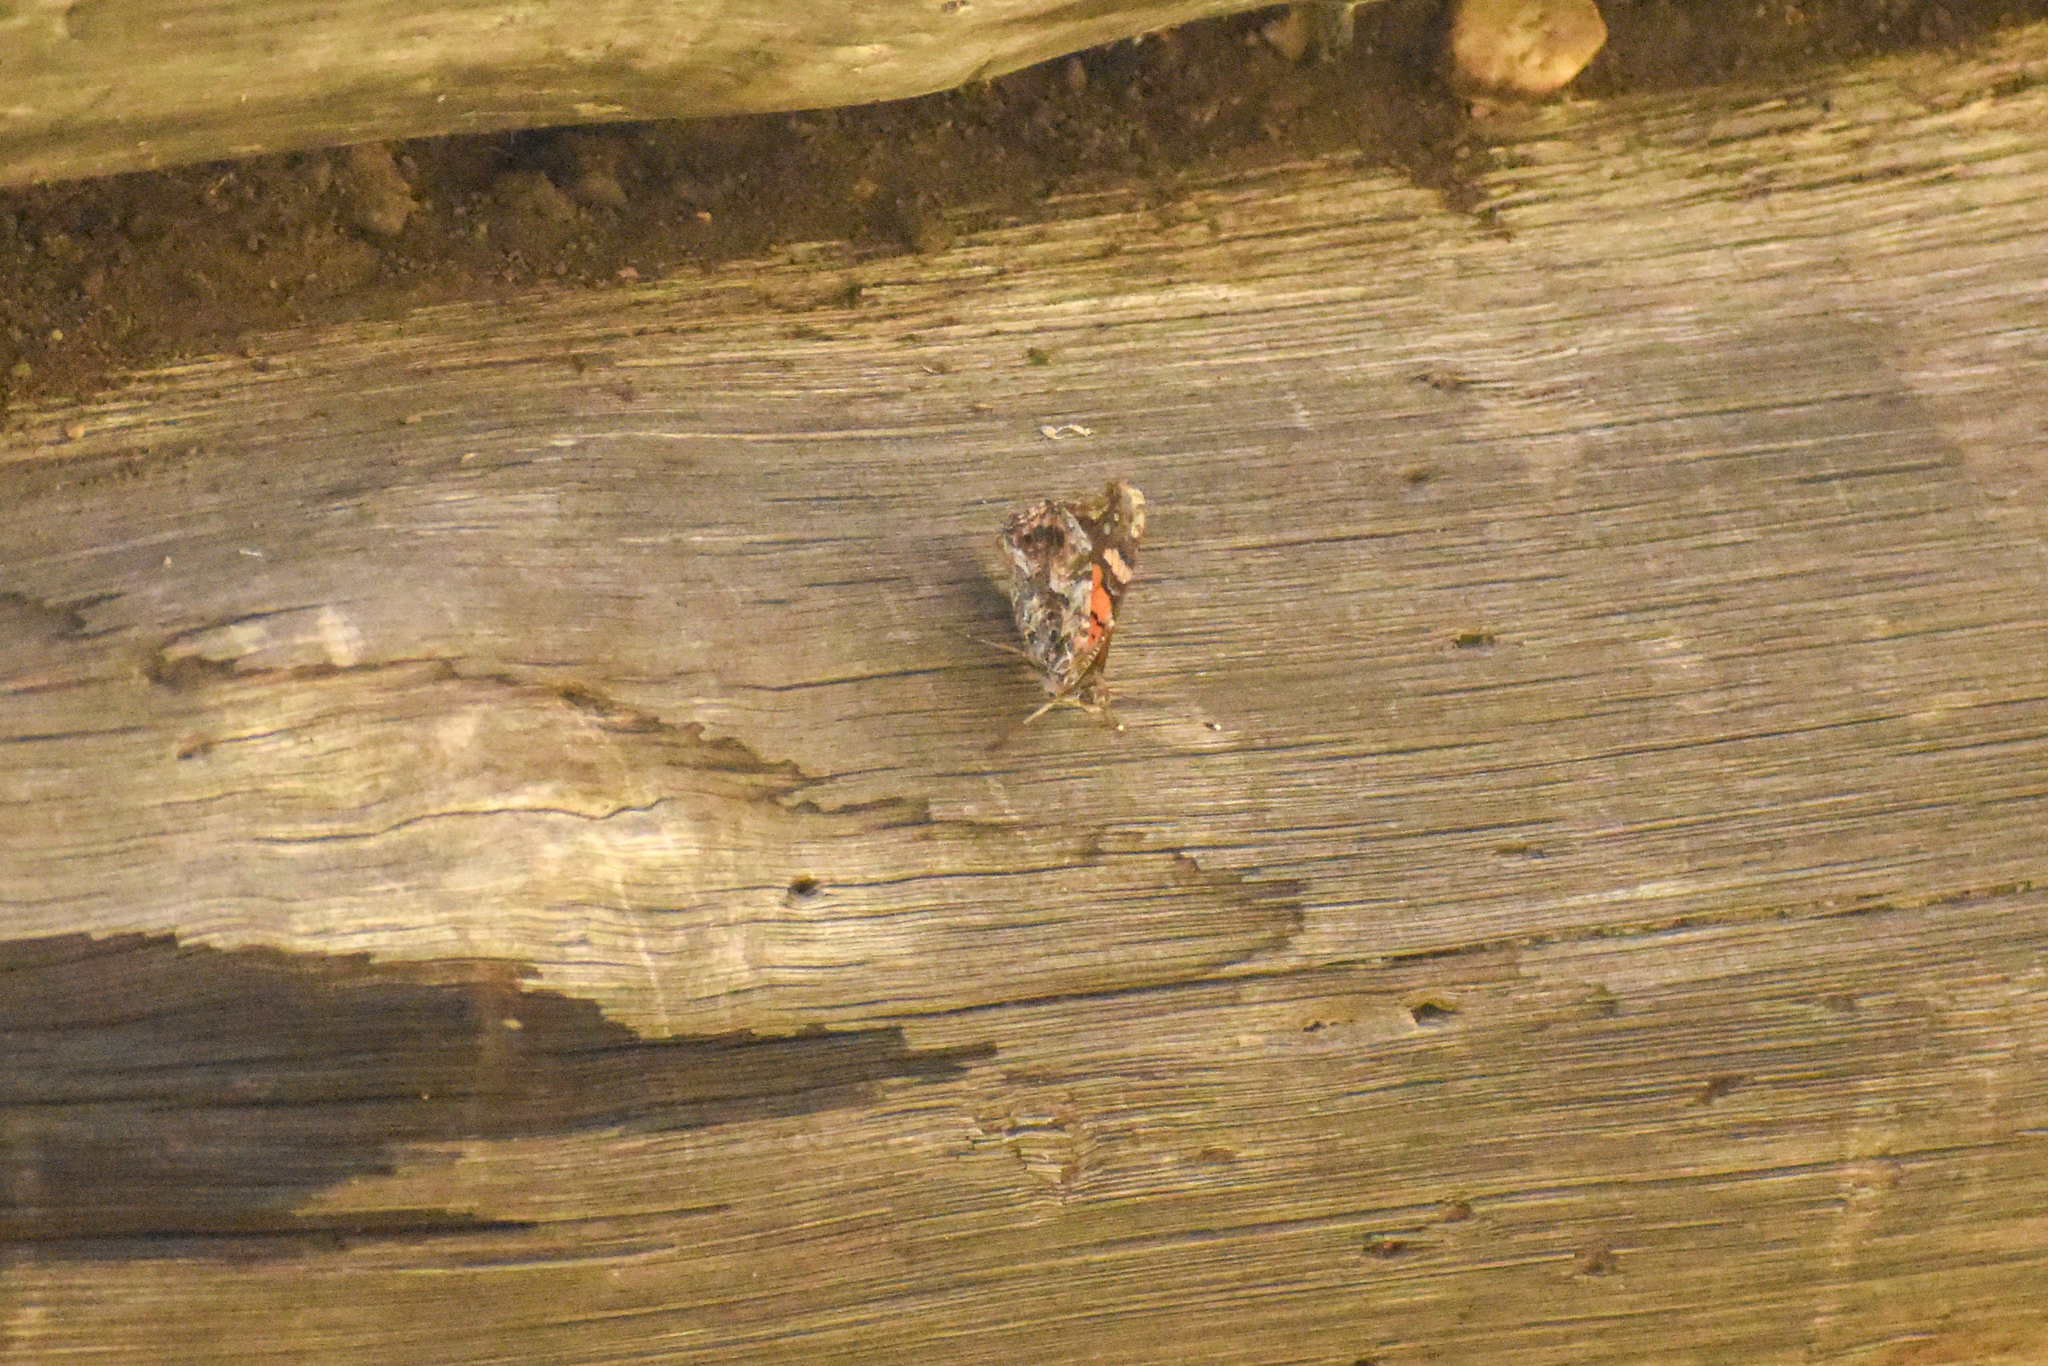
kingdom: Animalia
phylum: Arthropoda
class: Insecta
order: Lepidoptera
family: Nymphalidae
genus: Vanessa
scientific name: Vanessa carye
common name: Subtropical lady
